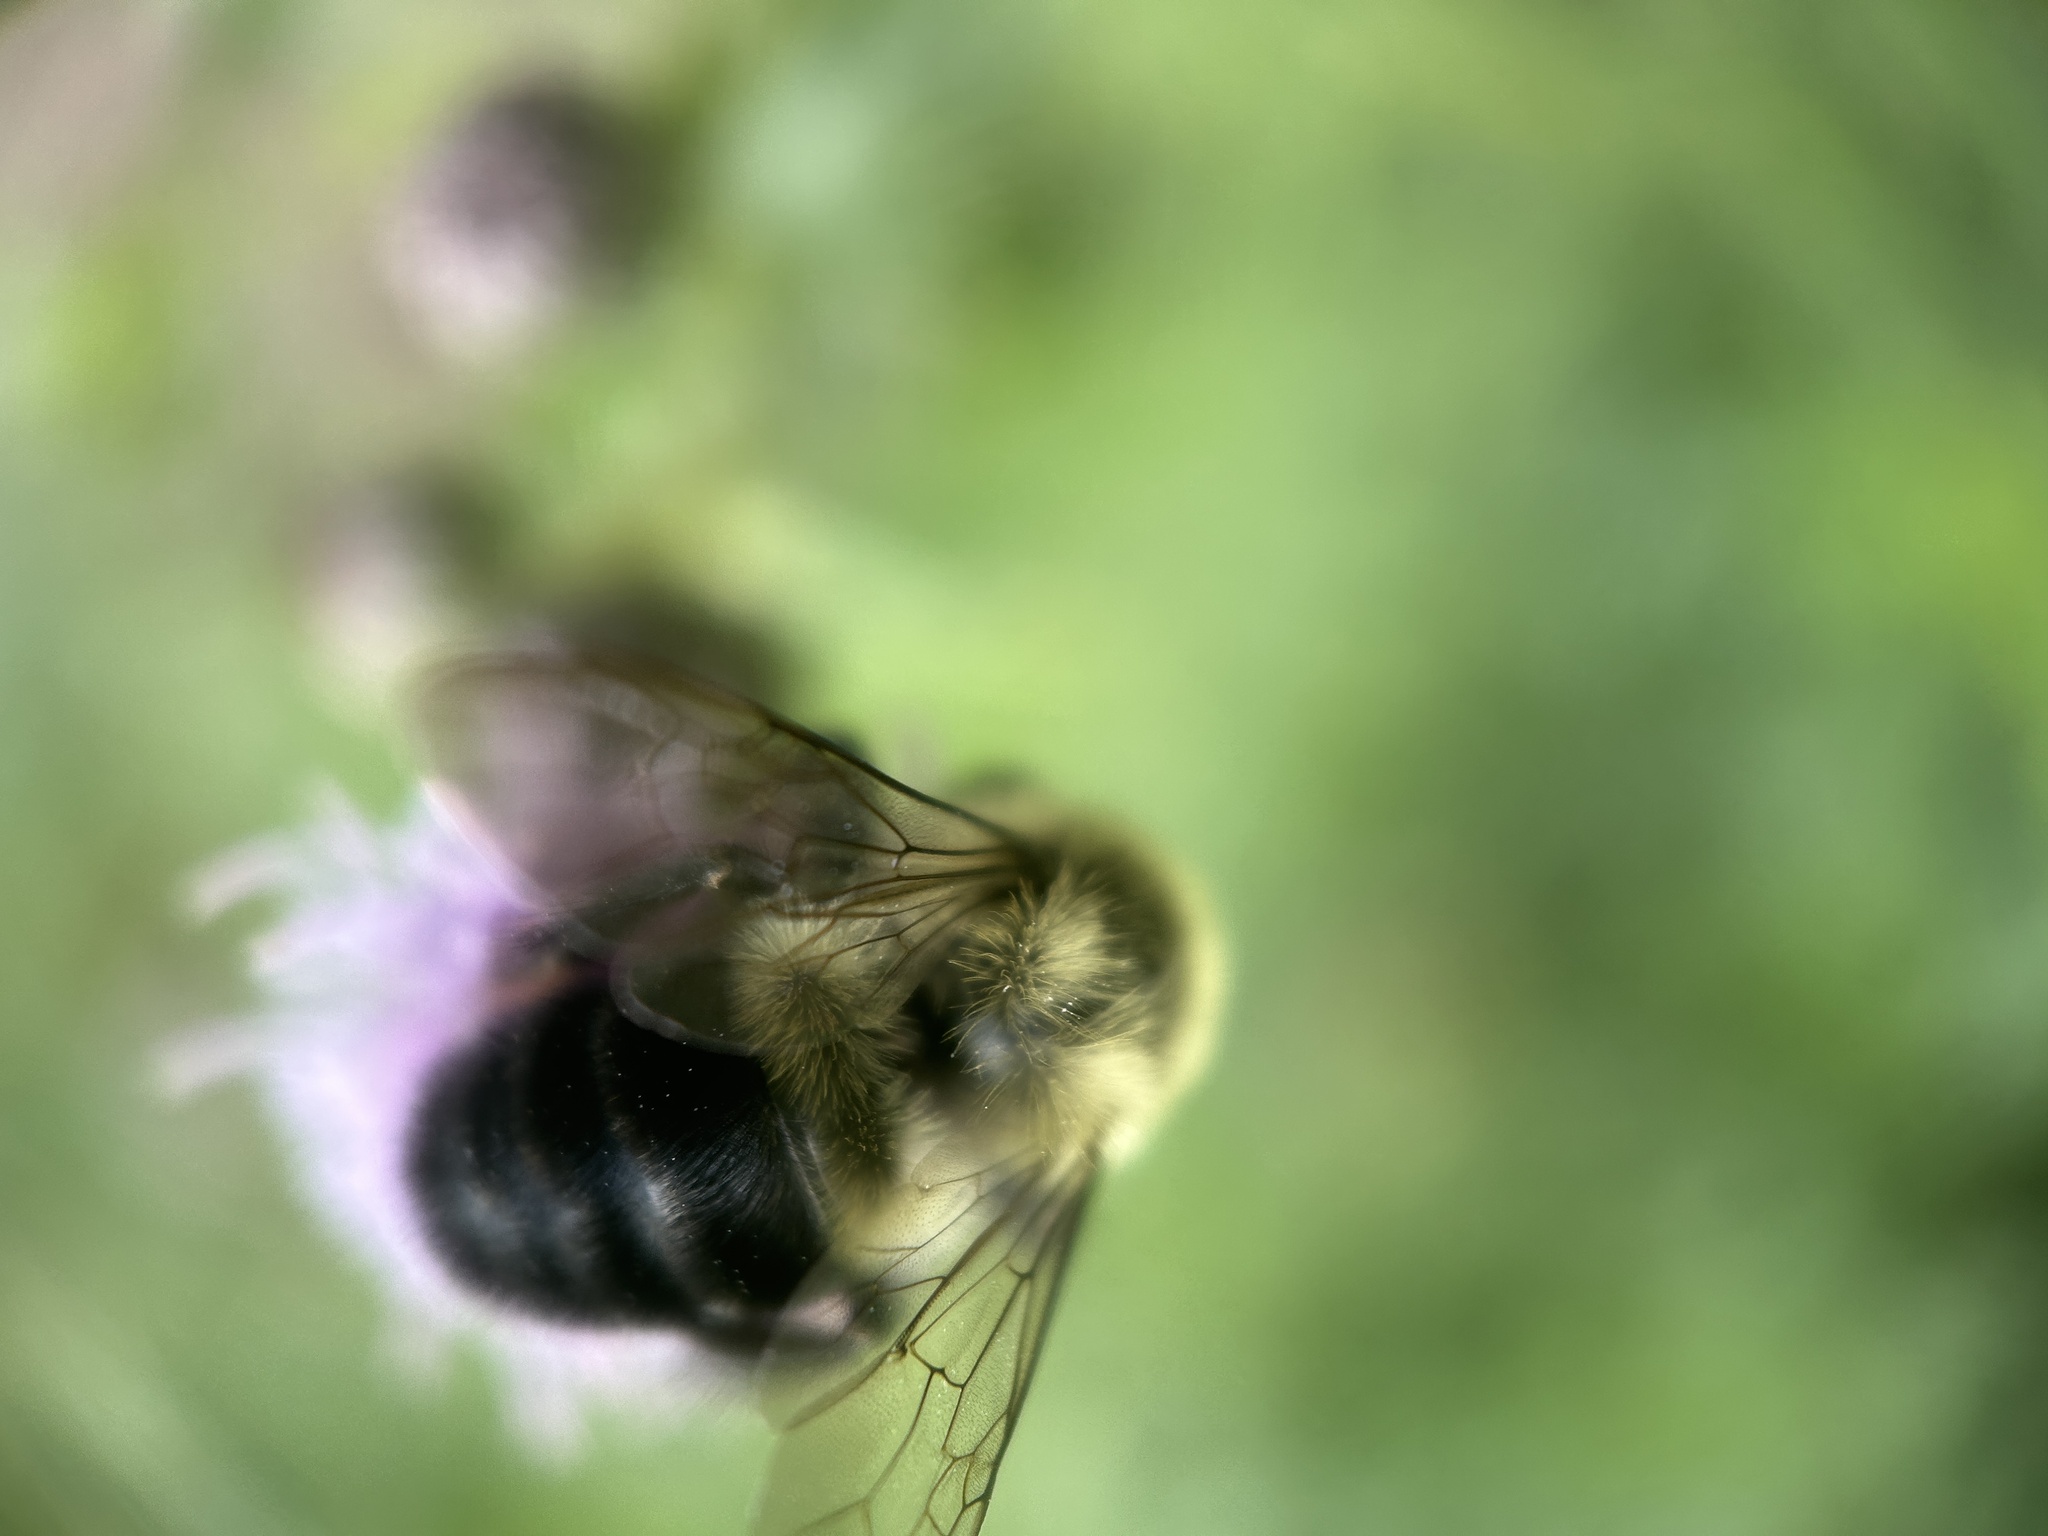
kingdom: Animalia
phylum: Arthropoda
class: Insecta
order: Hymenoptera
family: Apidae
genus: Bombus
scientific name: Bombus impatiens
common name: Common eastern bumble bee
